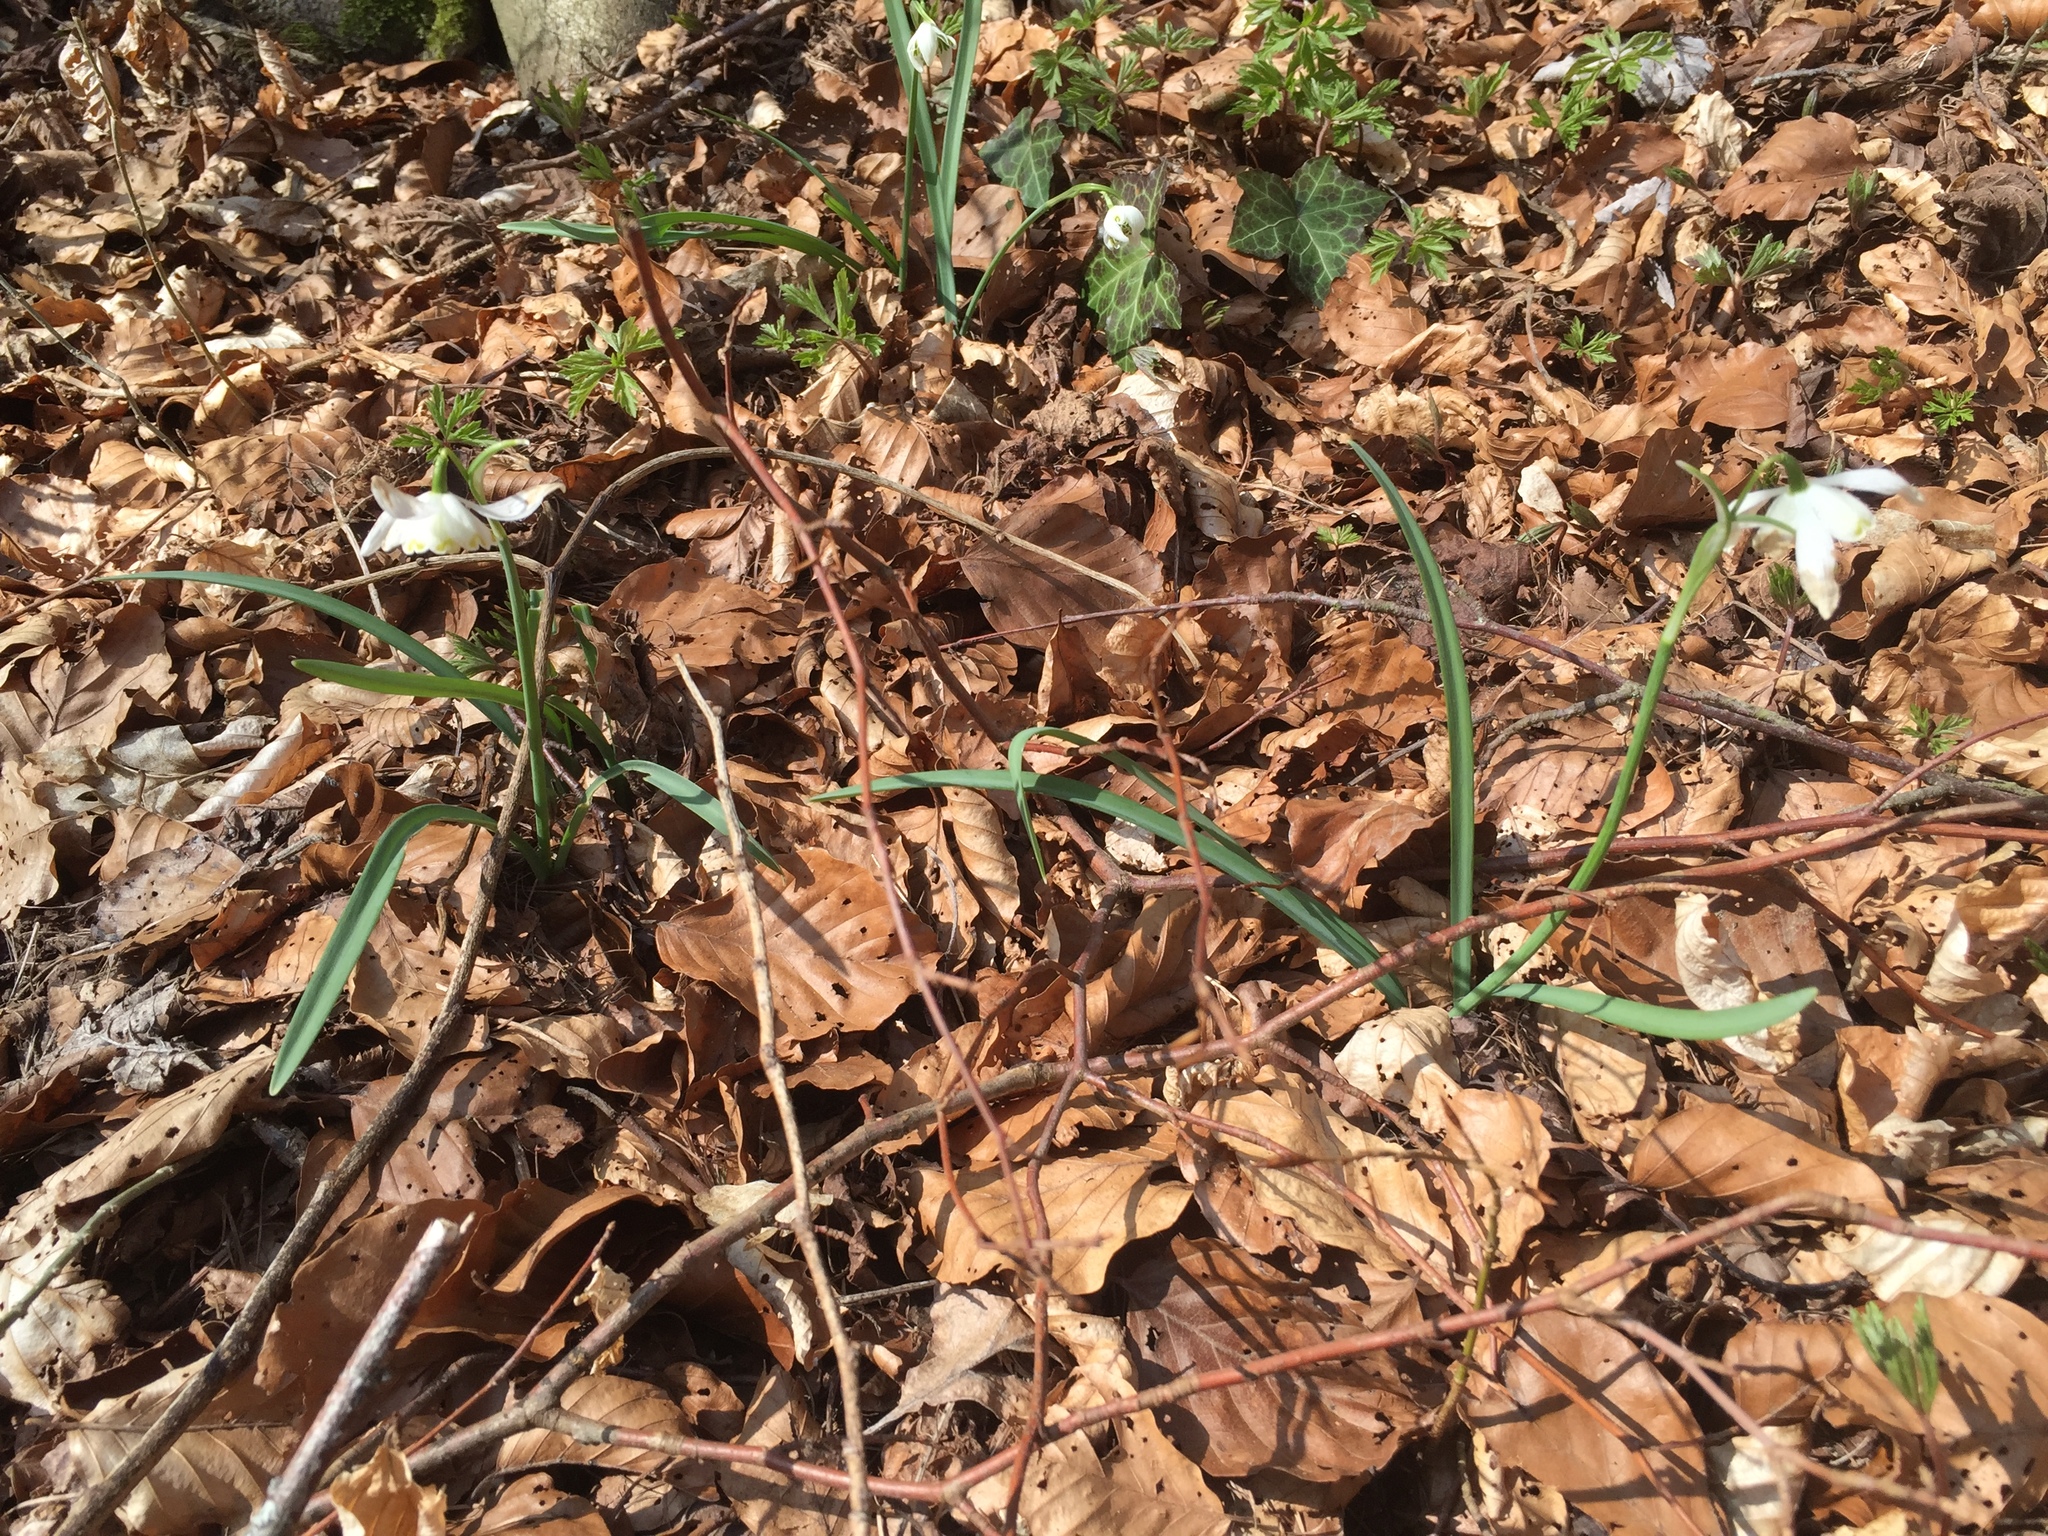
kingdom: Plantae
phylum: Tracheophyta
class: Liliopsida
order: Asparagales
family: Amaryllidaceae
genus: Galanthus
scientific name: Galanthus nivalis
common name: Snowdrop
